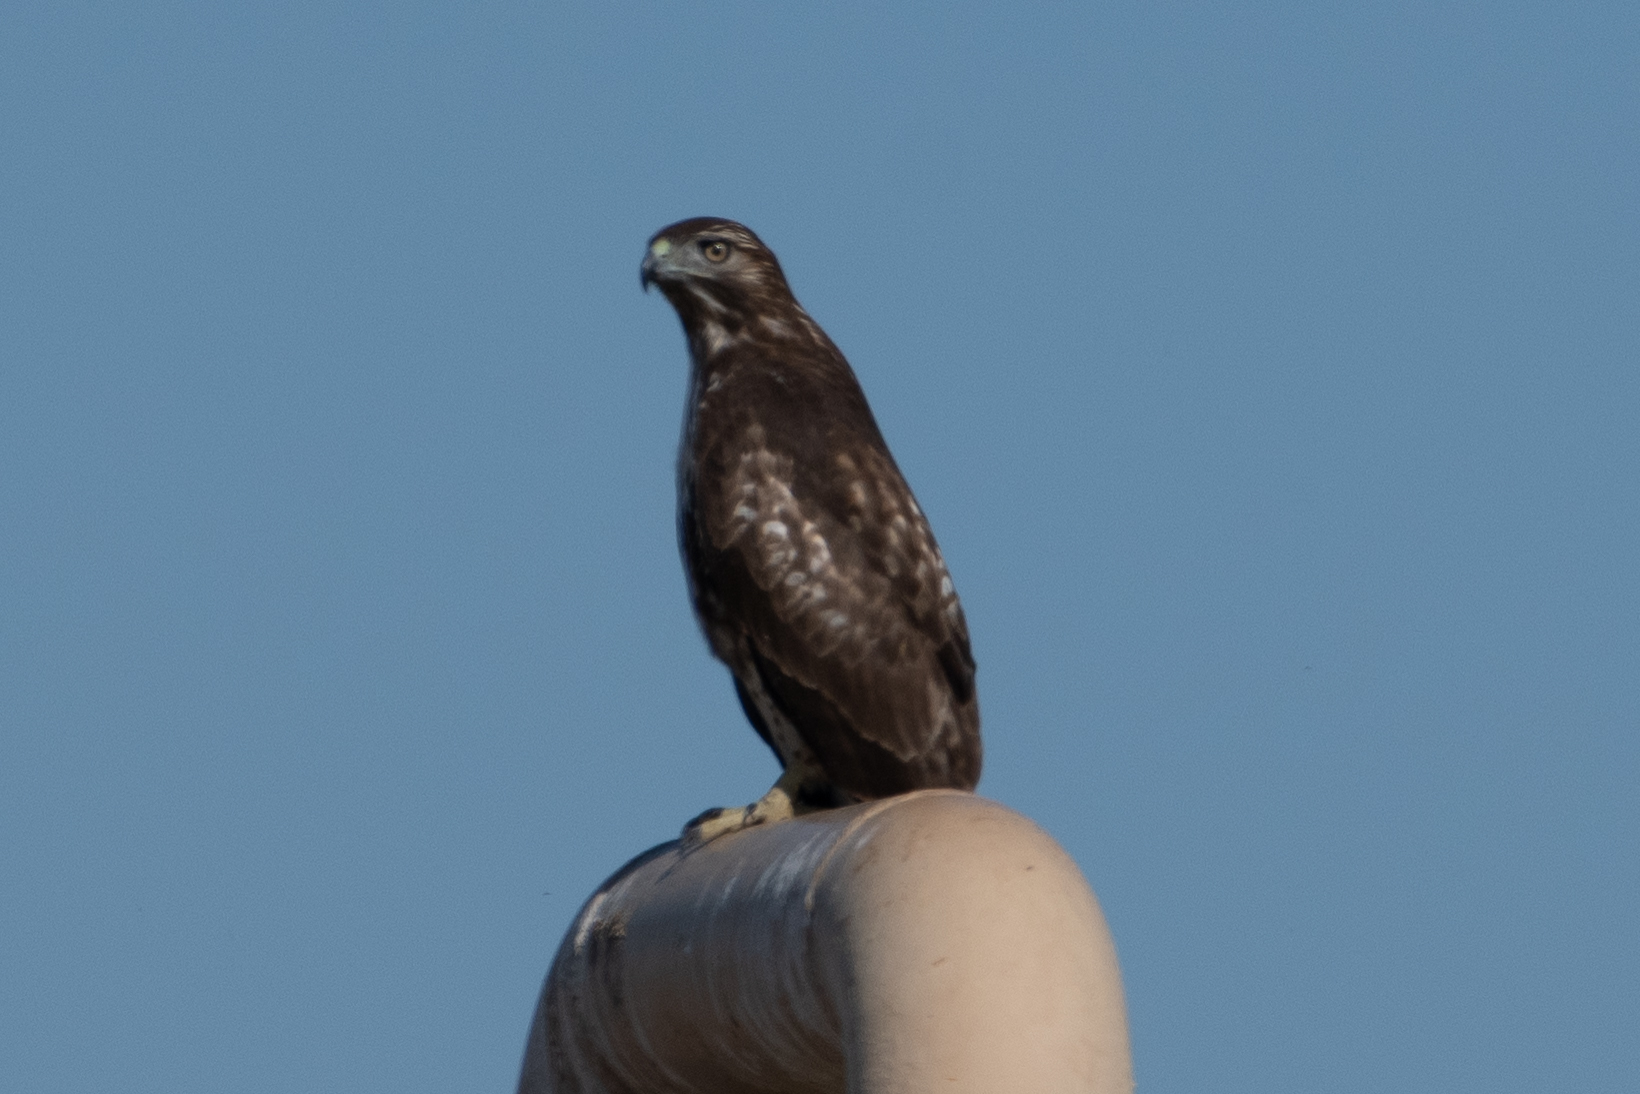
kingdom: Animalia
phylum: Chordata
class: Aves
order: Accipitriformes
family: Accipitridae
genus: Buteo
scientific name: Buteo jamaicensis
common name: Red-tailed hawk
